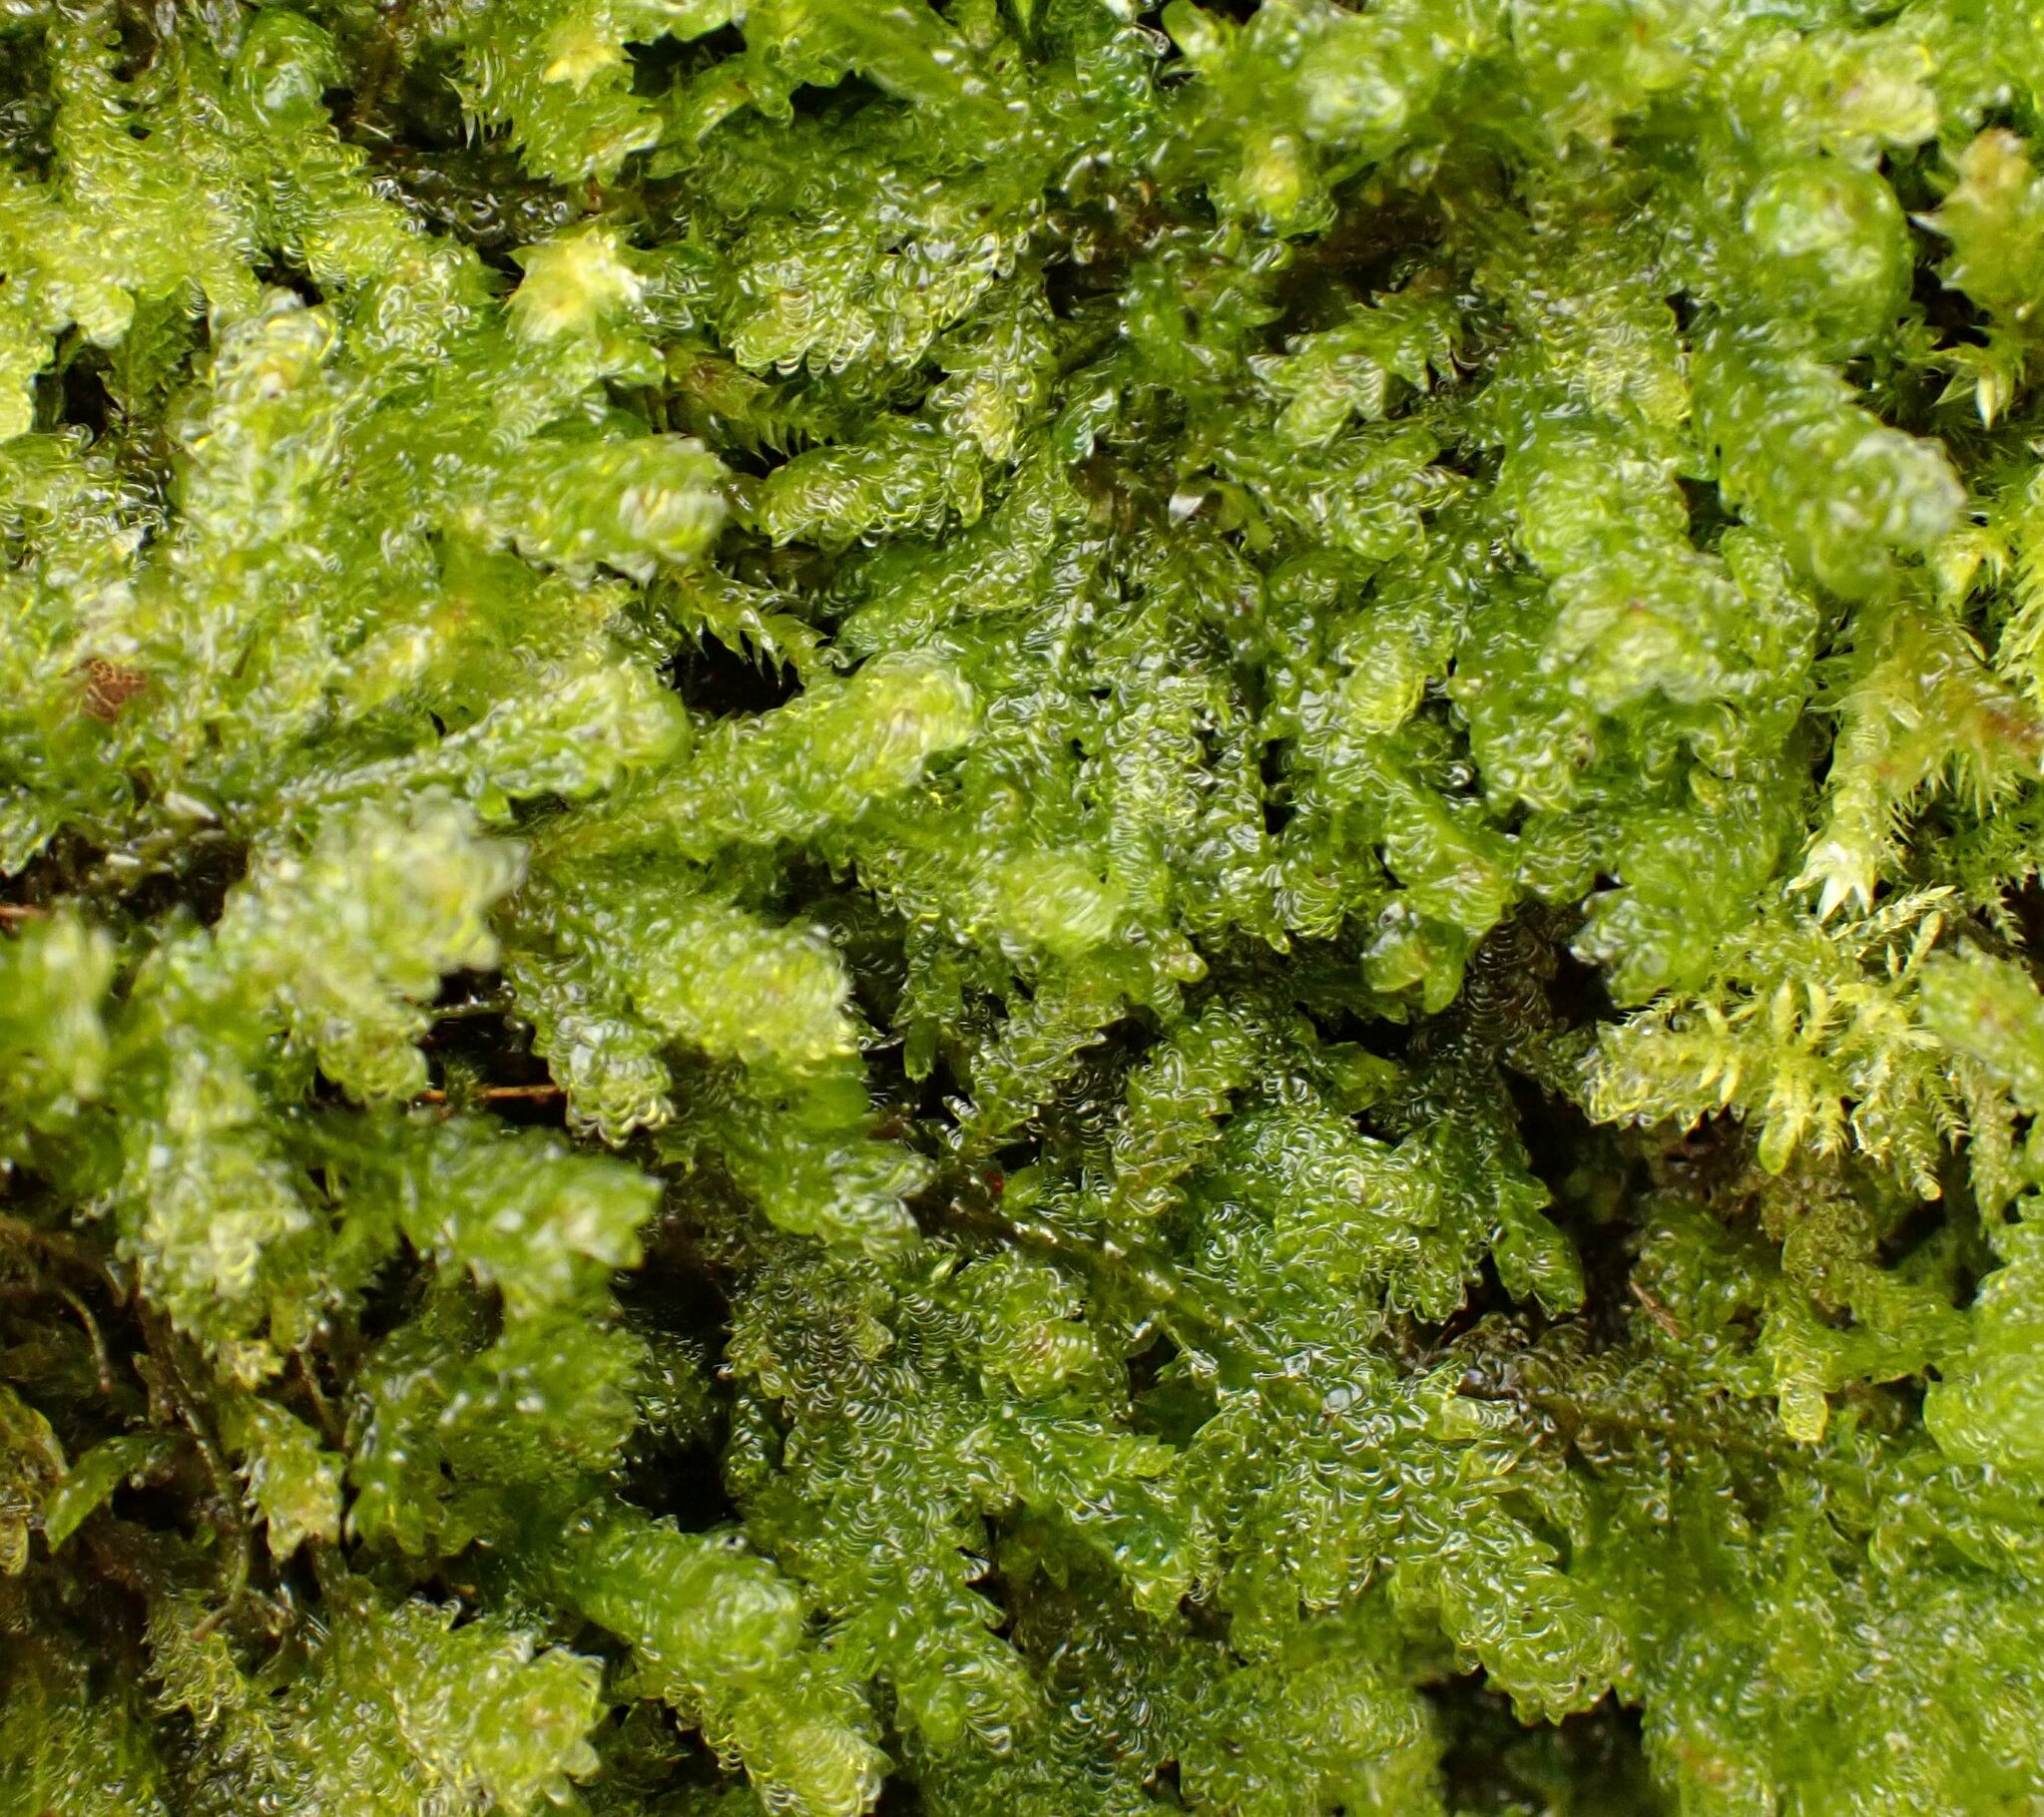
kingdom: Plantae
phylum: Bryophyta
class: Bryopsida
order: Hypnales
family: Neckeraceae
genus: Exsertotheca
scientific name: Exsertotheca crispa
